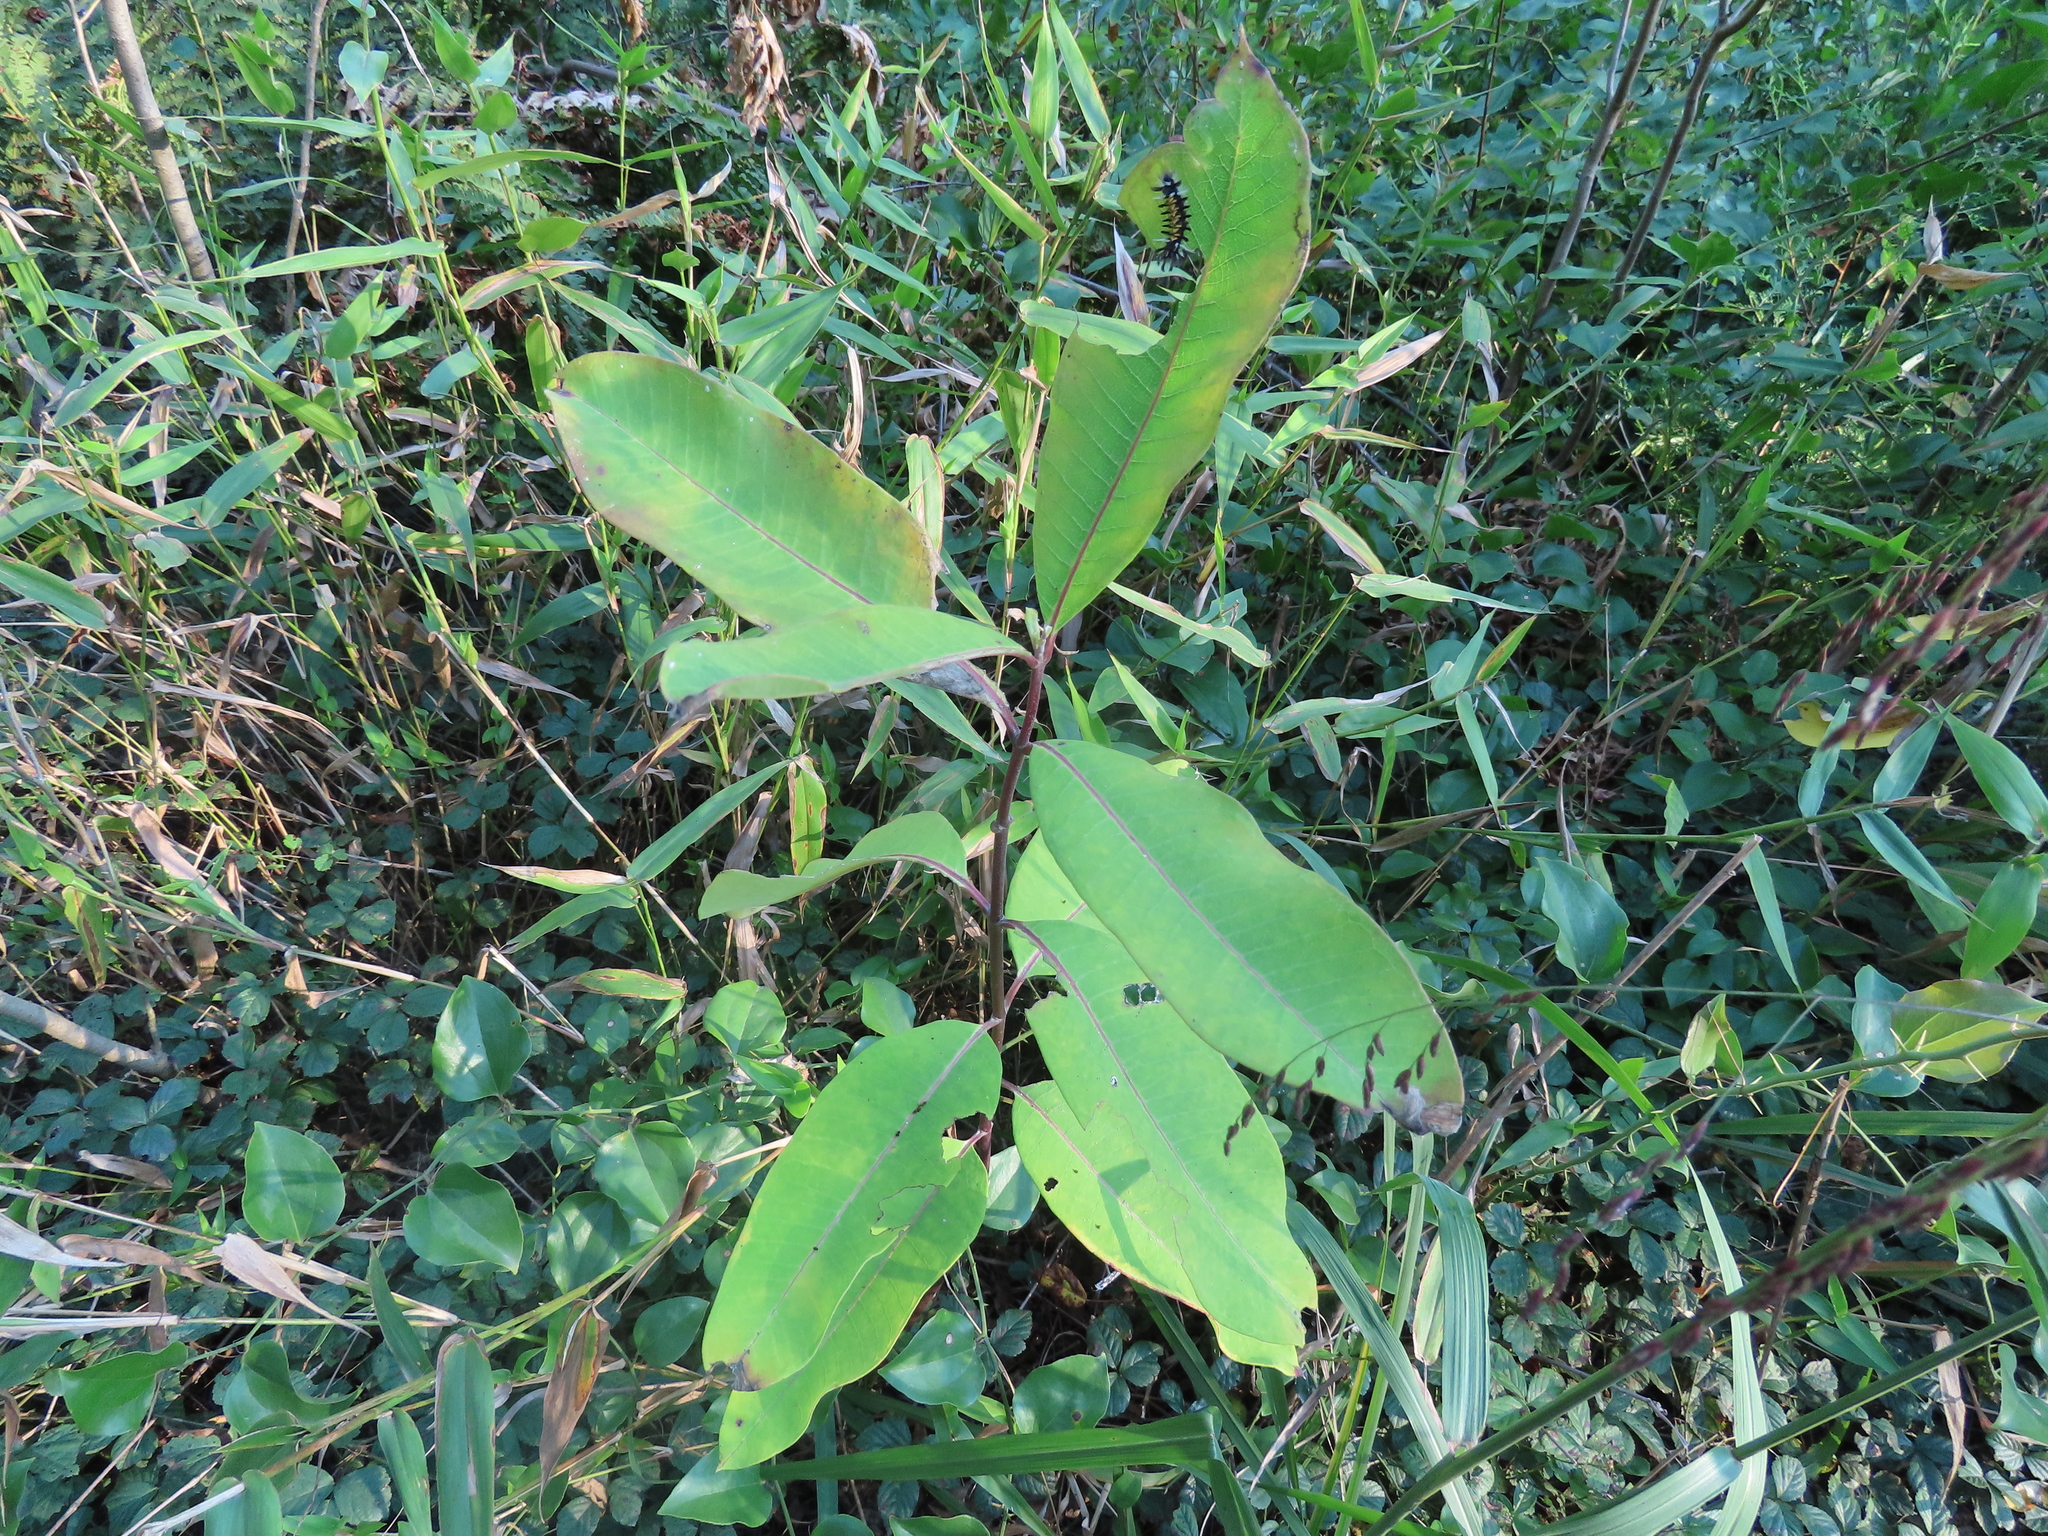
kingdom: Plantae
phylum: Tracheophyta
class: Magnoliopsida
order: Gentianales
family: Apocynaceae
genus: Asclepias
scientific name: Asclepias syriaca
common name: Common milkweed
